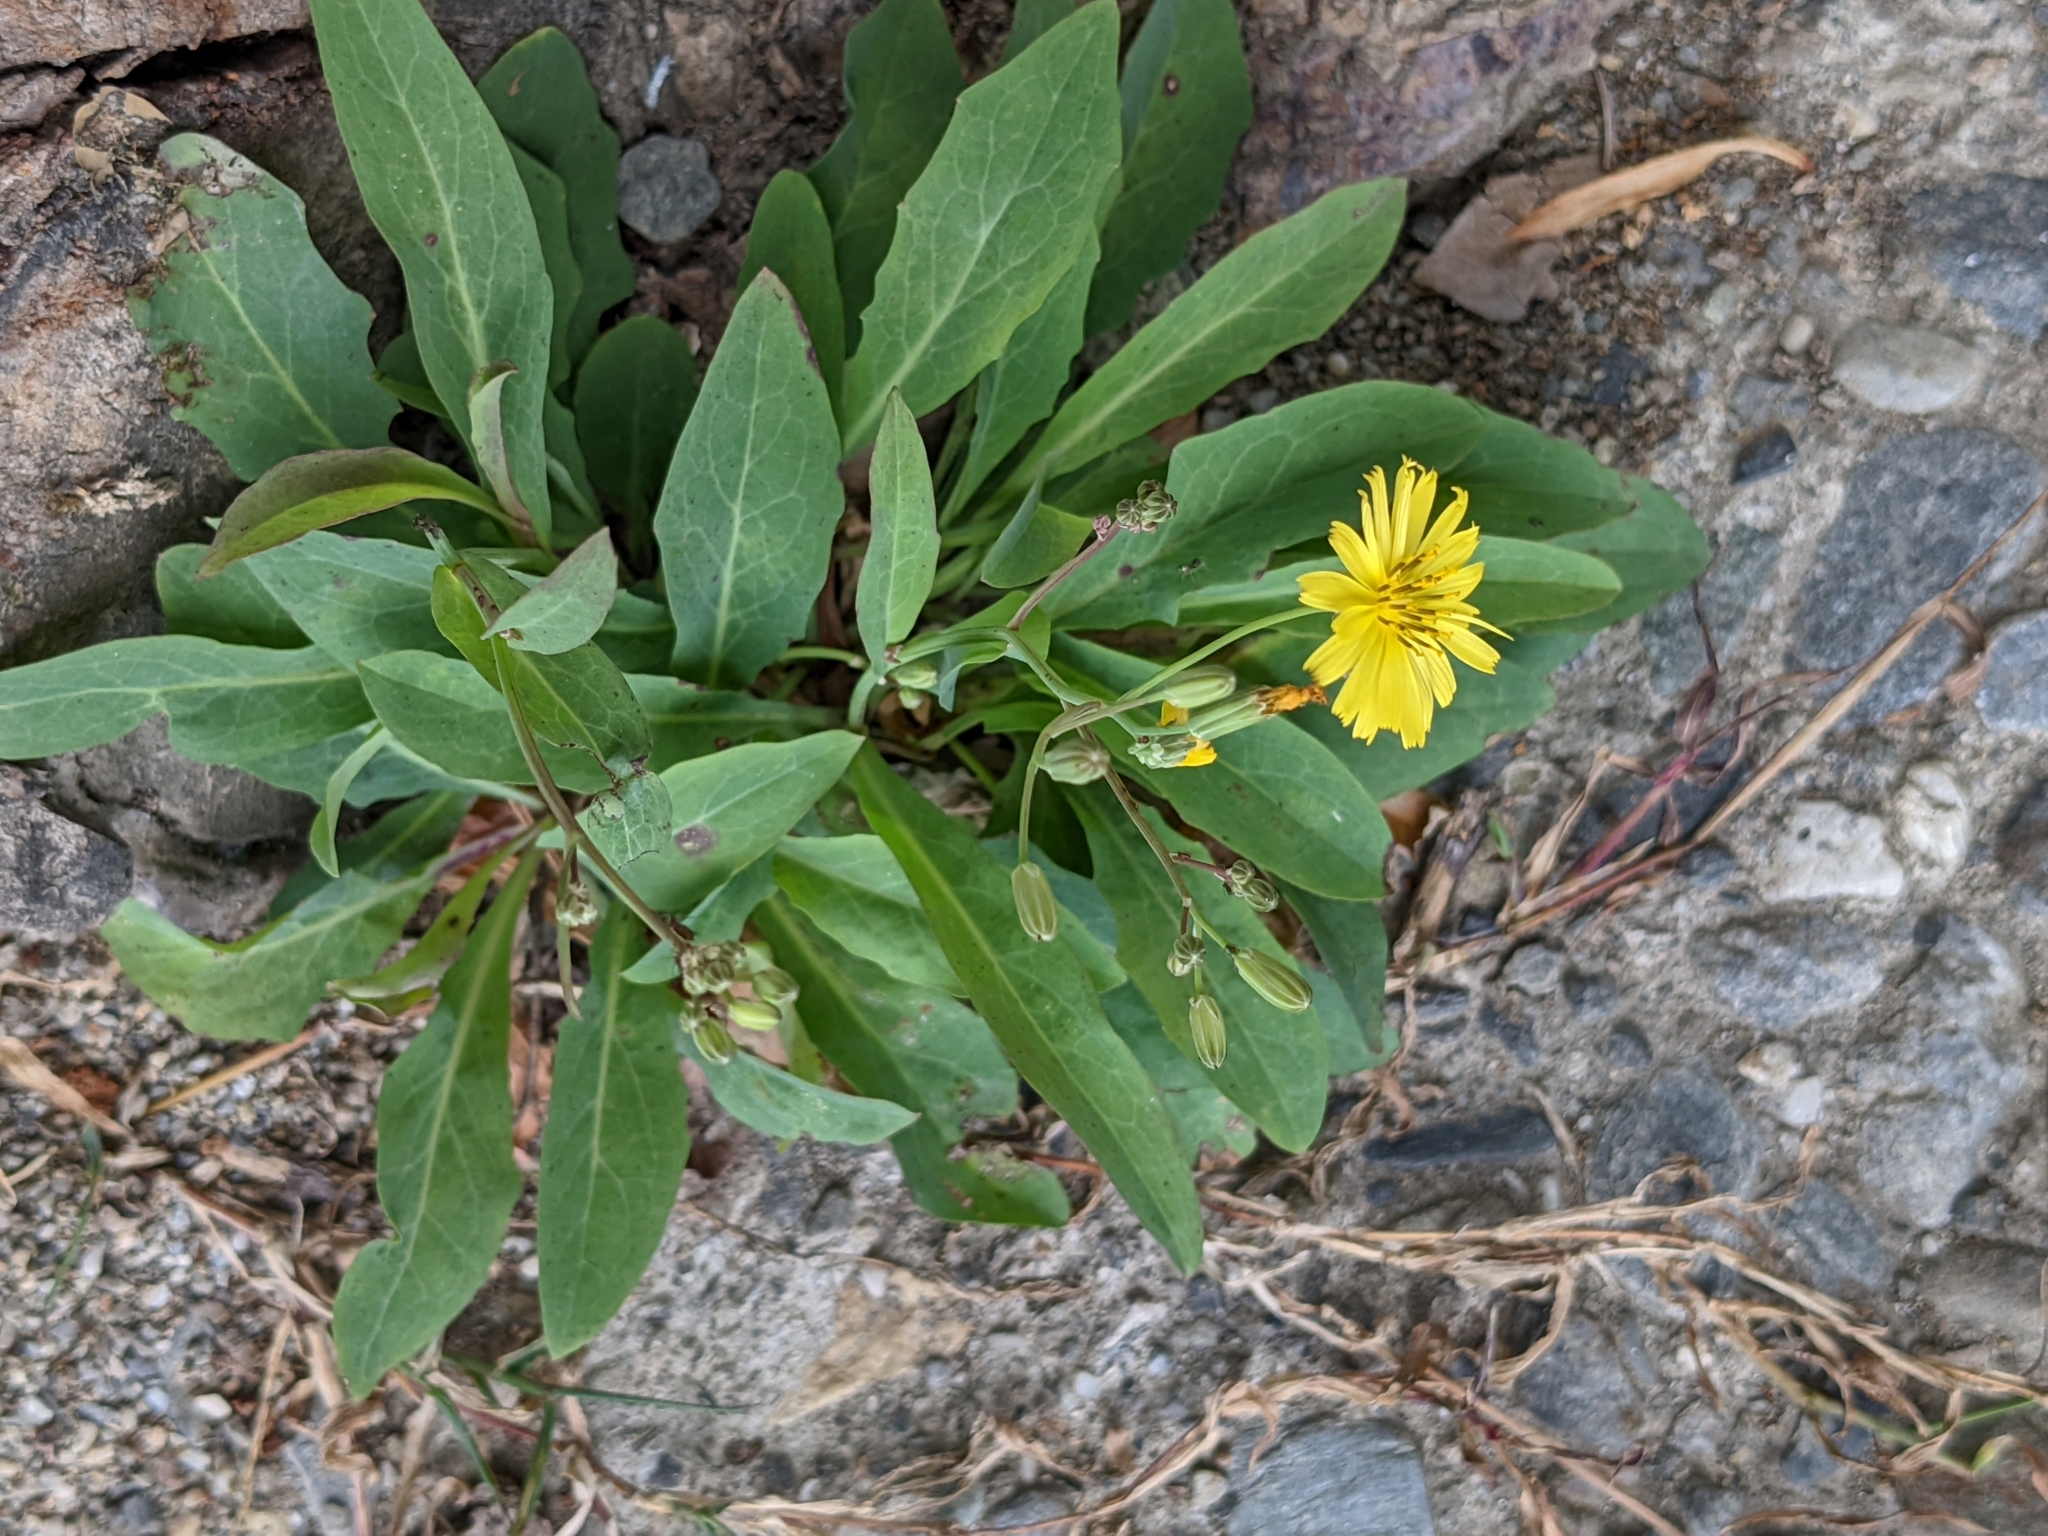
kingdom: Plantae
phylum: Tracheophyta
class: Magnoliopsida
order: Asterales
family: Asteraceae
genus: Ixeris
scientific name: Ixeris chinensis
